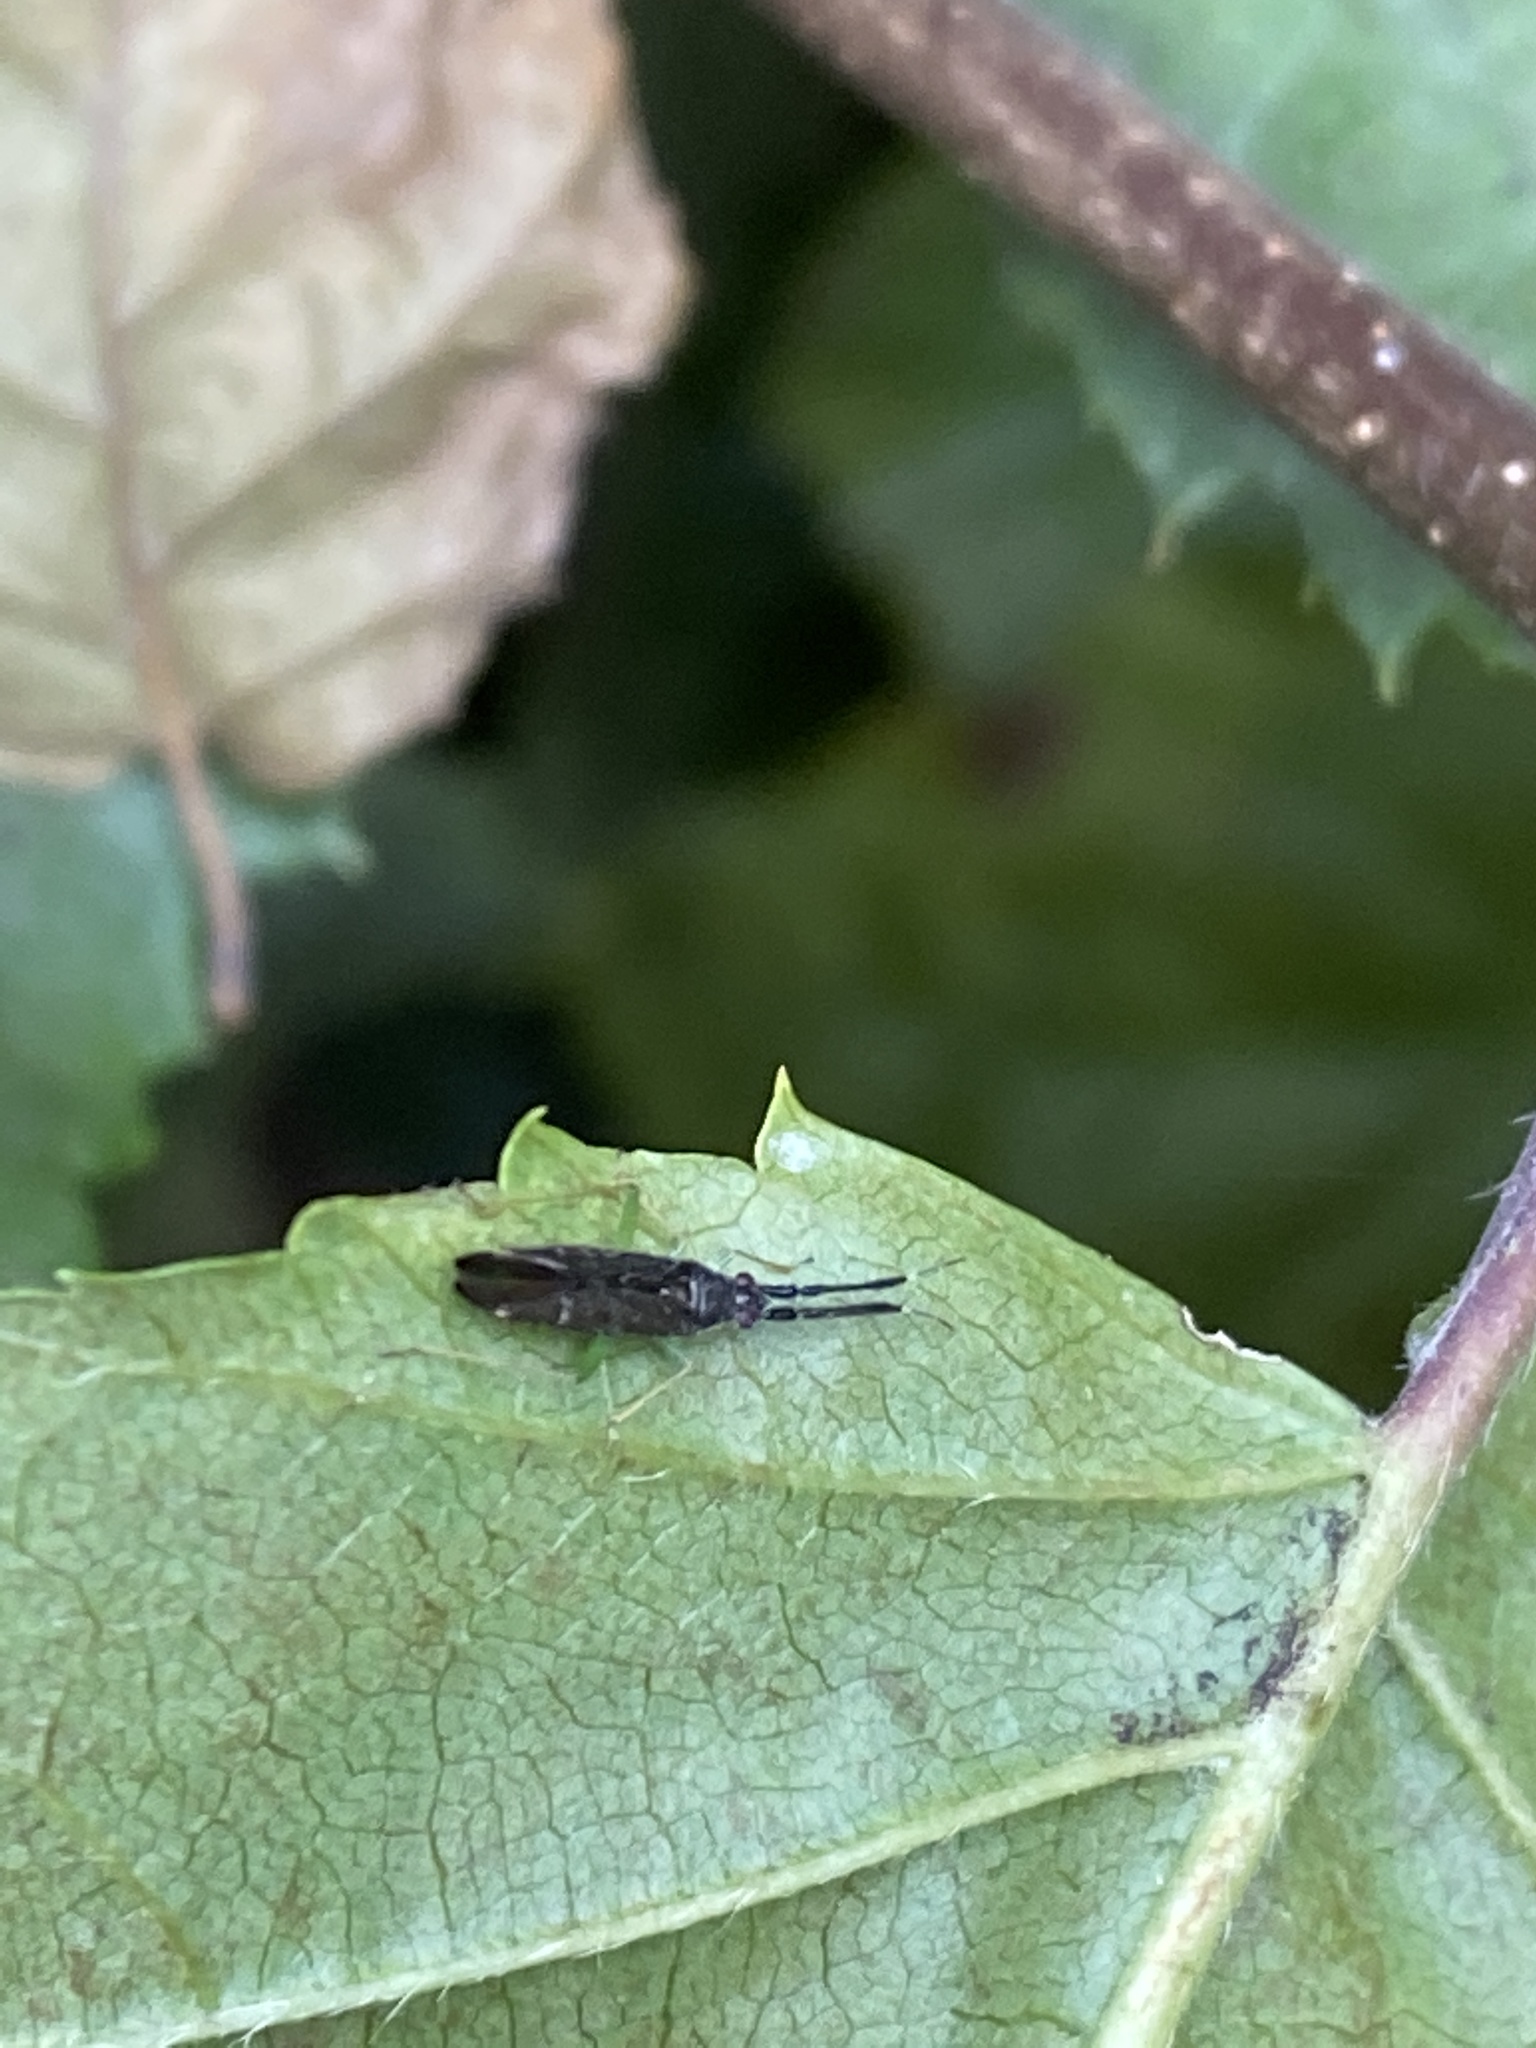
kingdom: Animalia
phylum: Arthropoda
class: Insecta
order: Hemiptera
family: Miridae
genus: Heterotoma
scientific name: Heterotoma planicornis
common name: Plant bug
